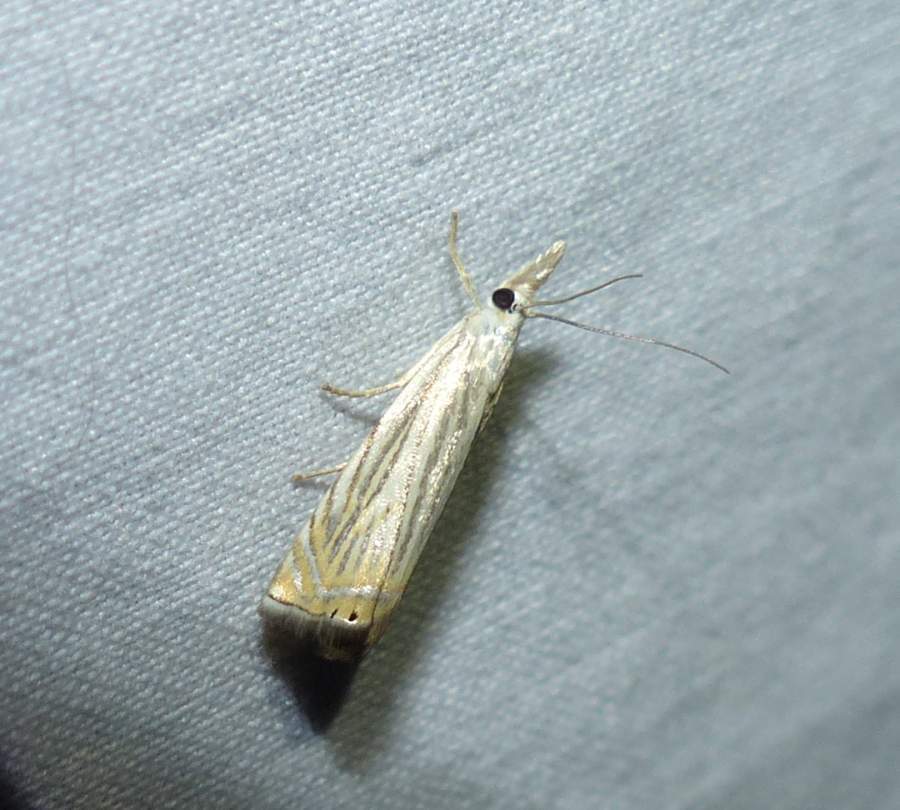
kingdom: Animalia
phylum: Arthropoda
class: Insecta
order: Lepidoptera
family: Crambidae
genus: Chrysoteuchia
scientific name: Chrysoteuchia topiarius
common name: Topiary grass-veneer
